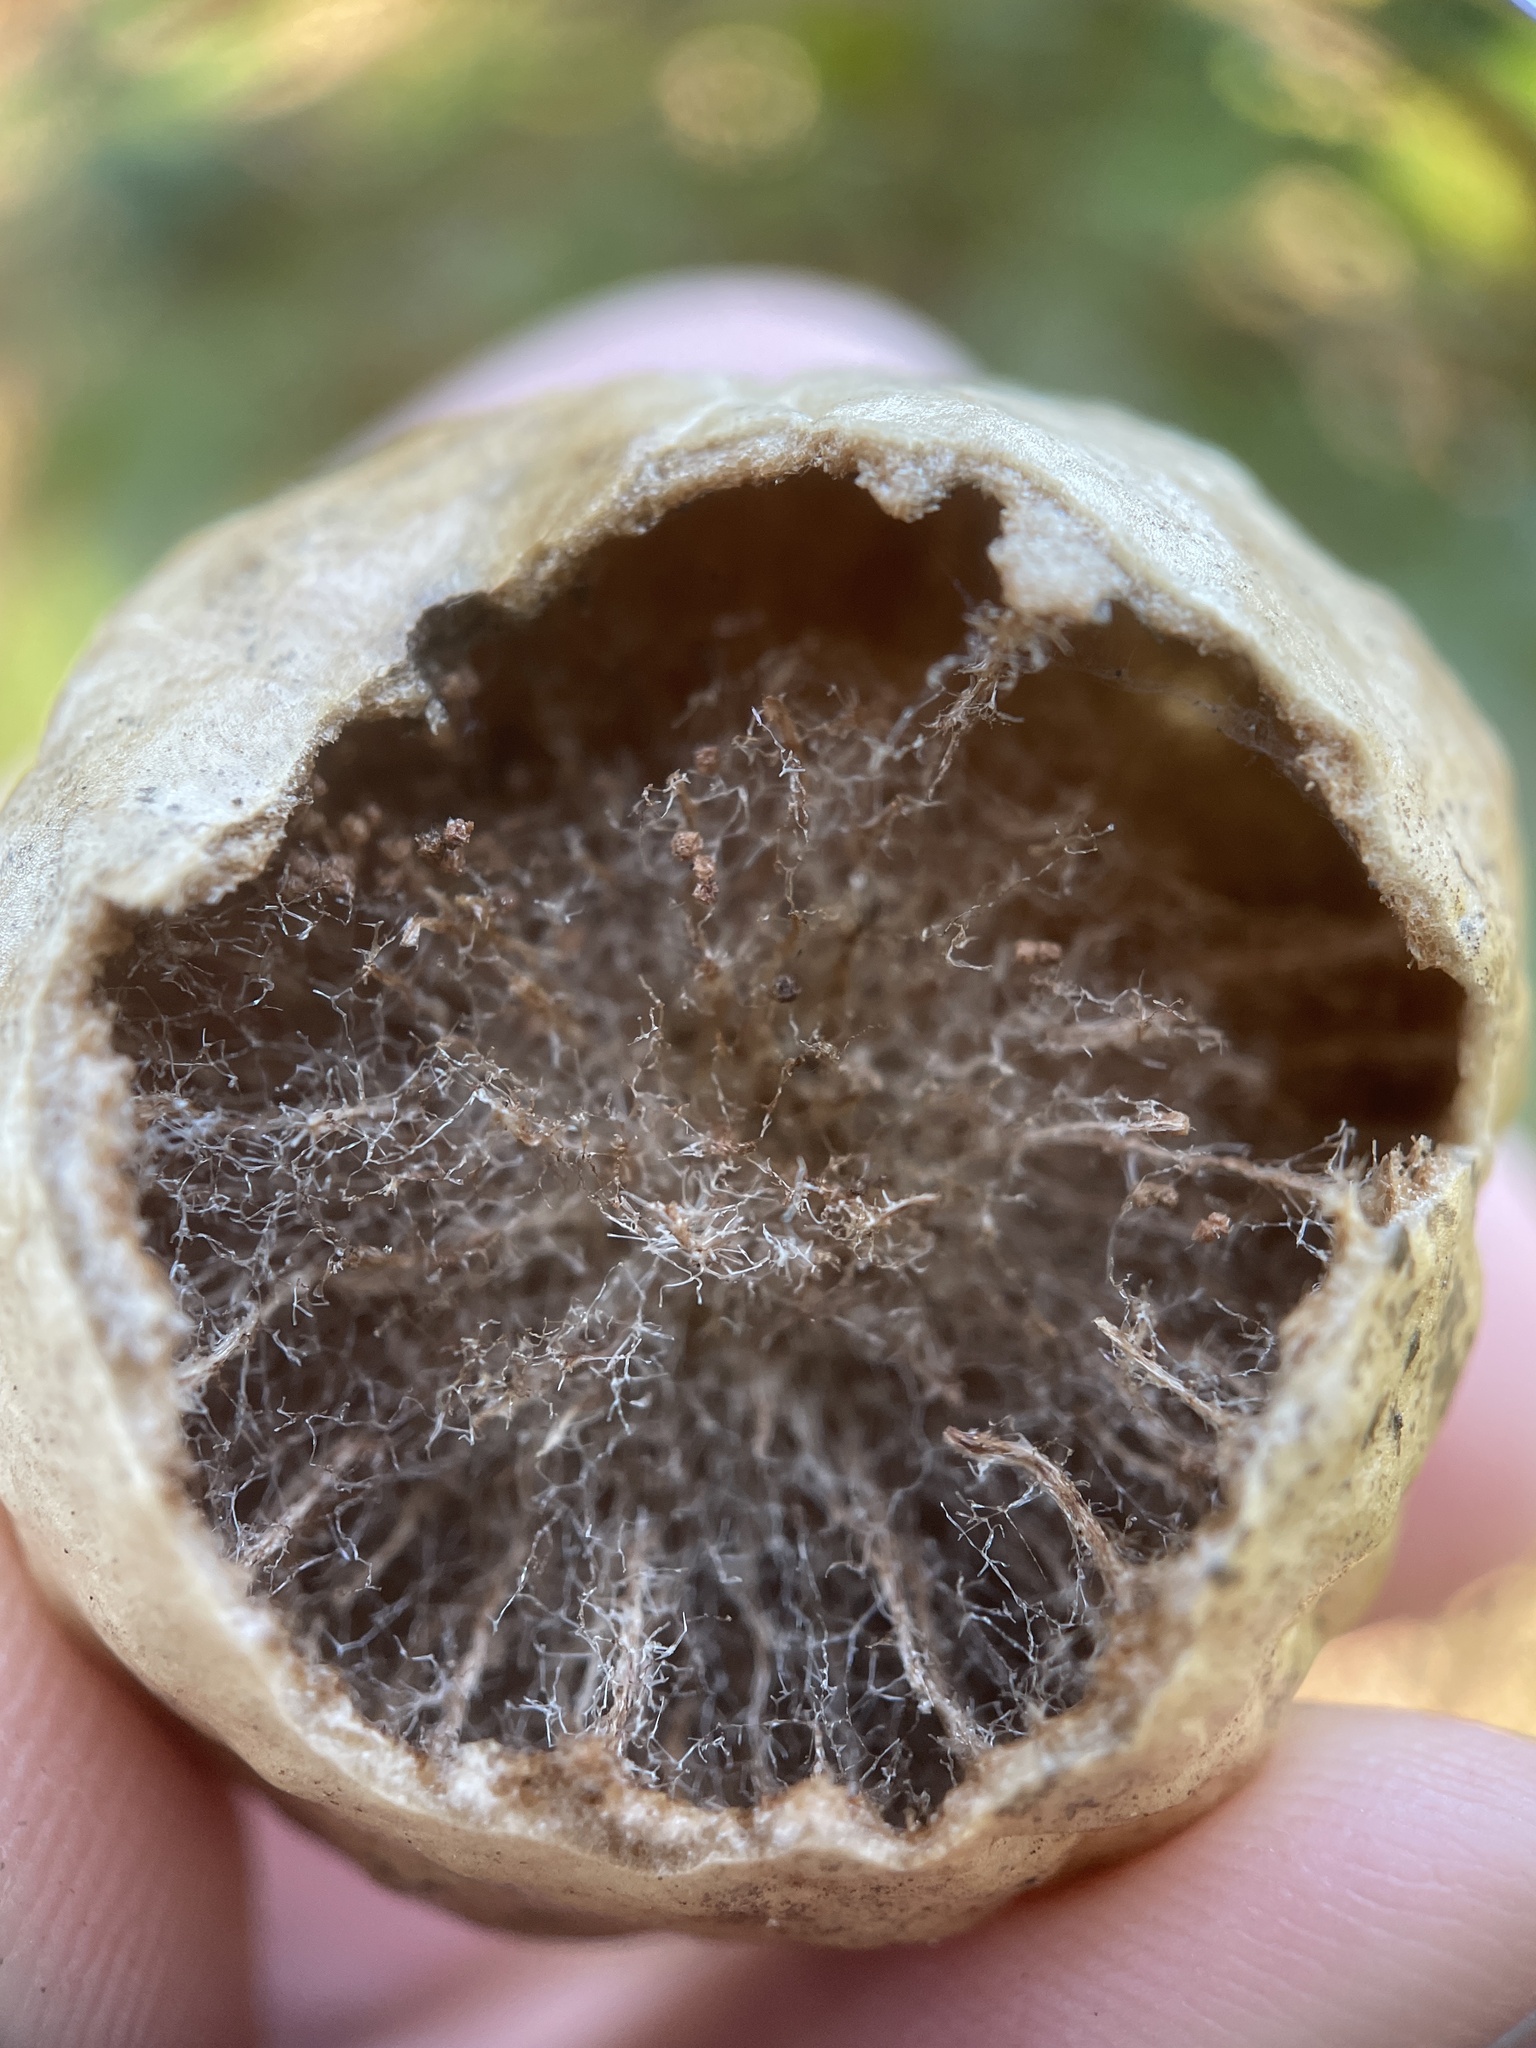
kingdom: Animalia
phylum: Arthropoda
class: Insecta
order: Hymenoptera
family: Cynipidae
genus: Amphibolips
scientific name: Amphibolips
